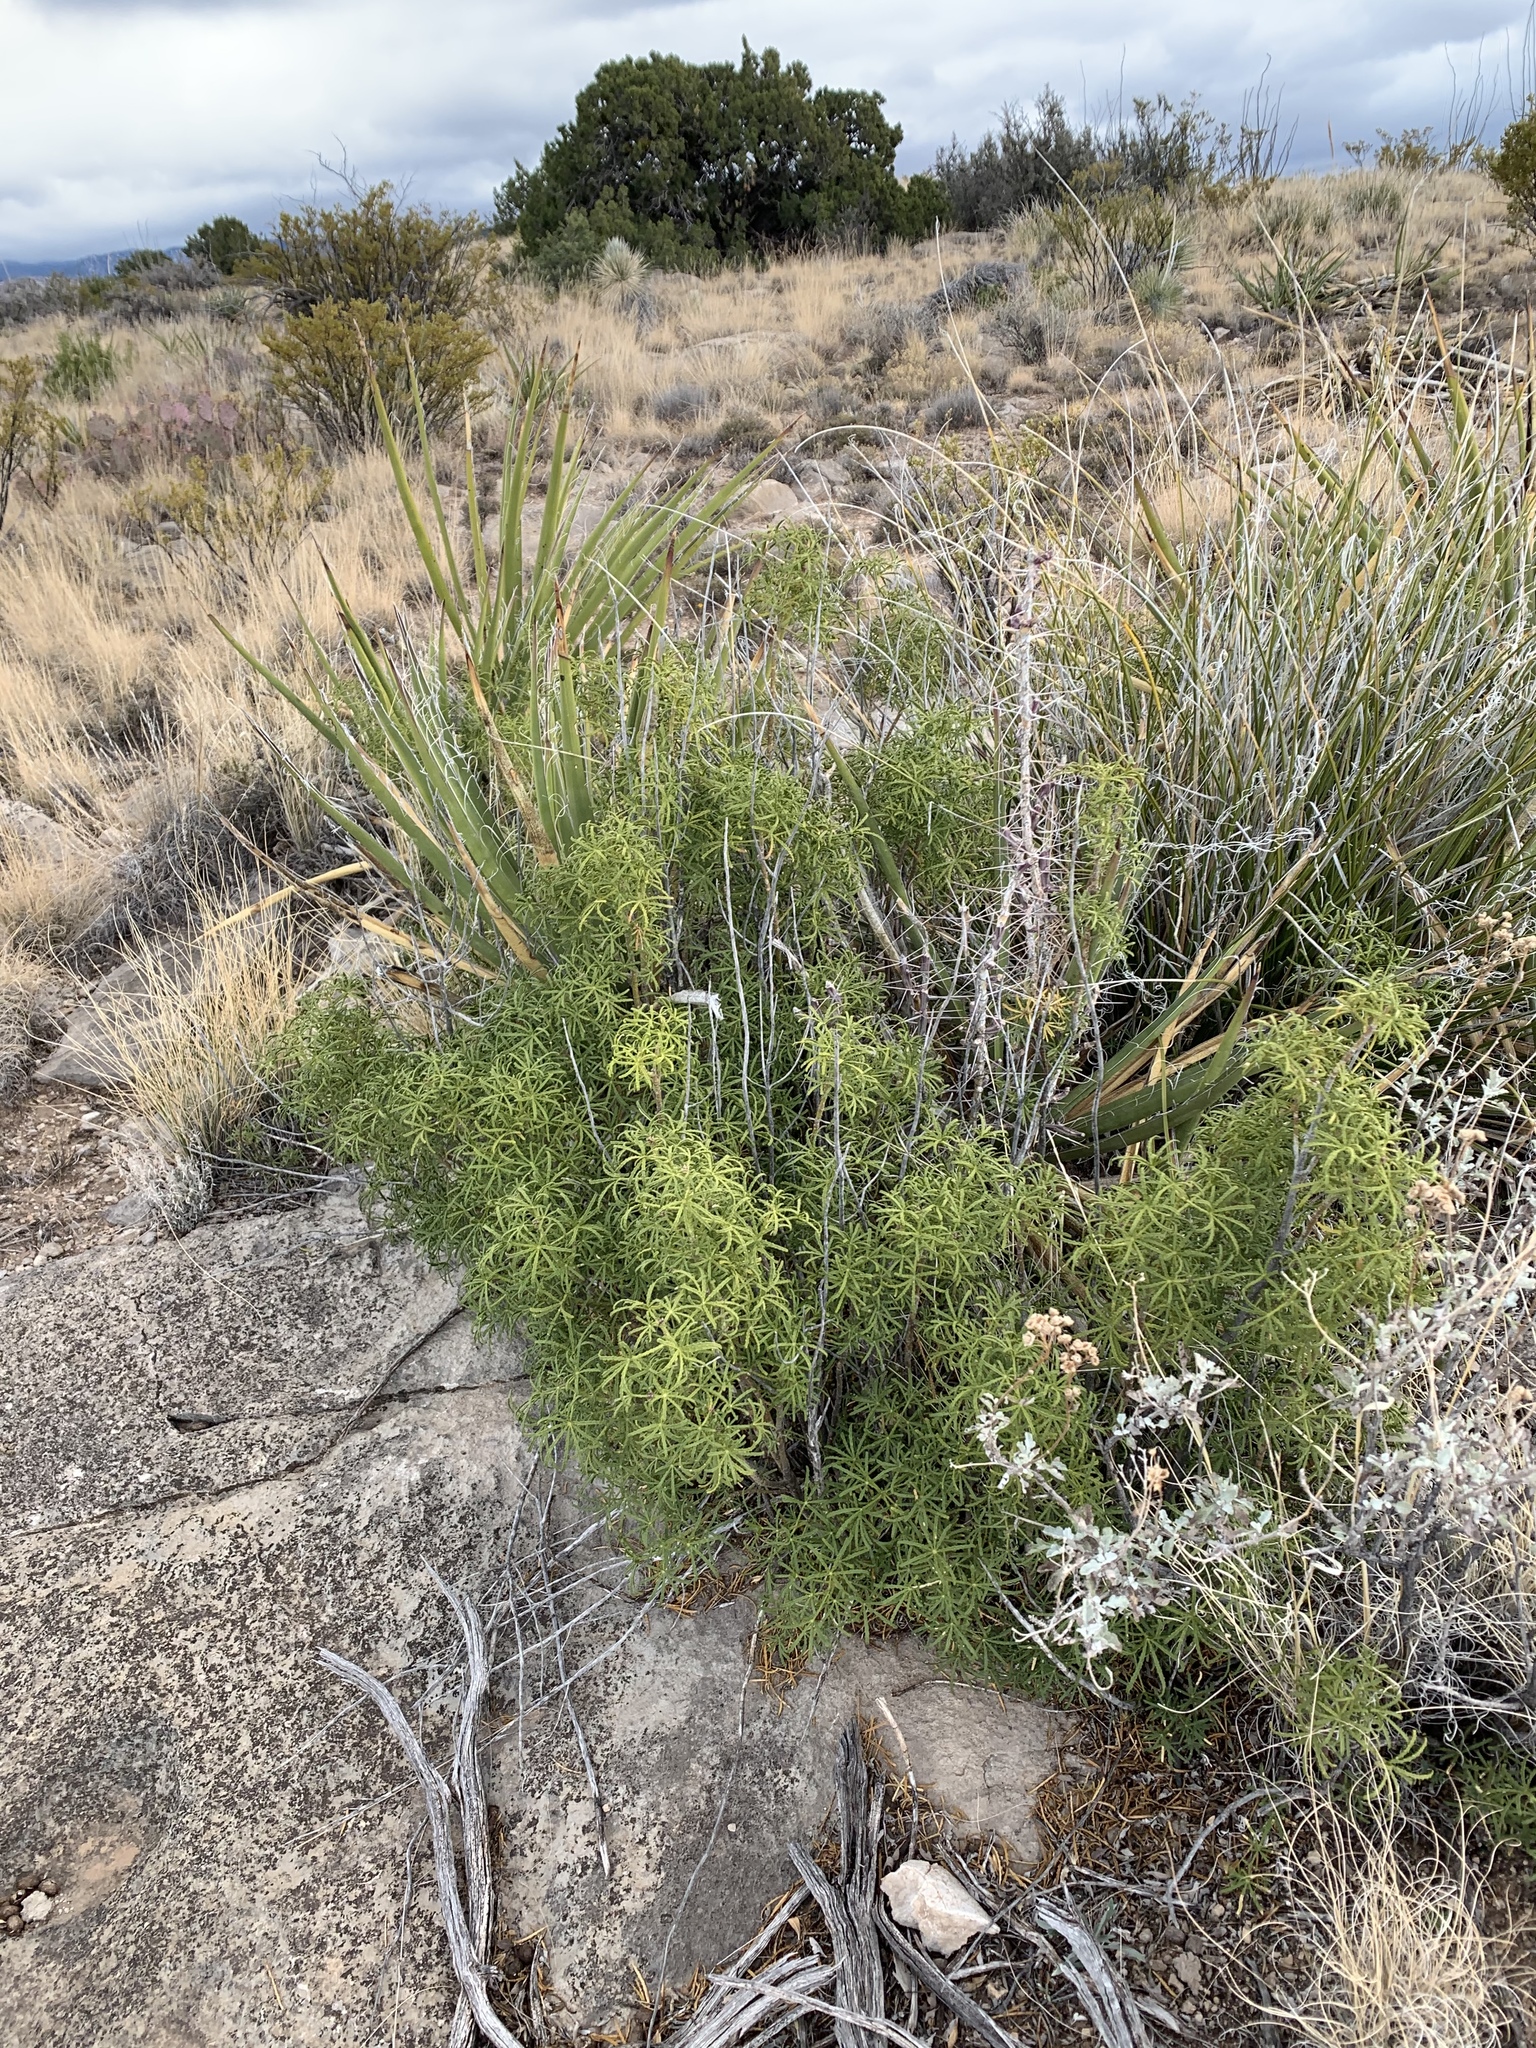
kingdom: Plantae
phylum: Tracheophyta
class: Magnoliopsida
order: Sapindales
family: Rutaceae
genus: Choisya
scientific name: Choisya dumosa
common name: Mexican-orange
